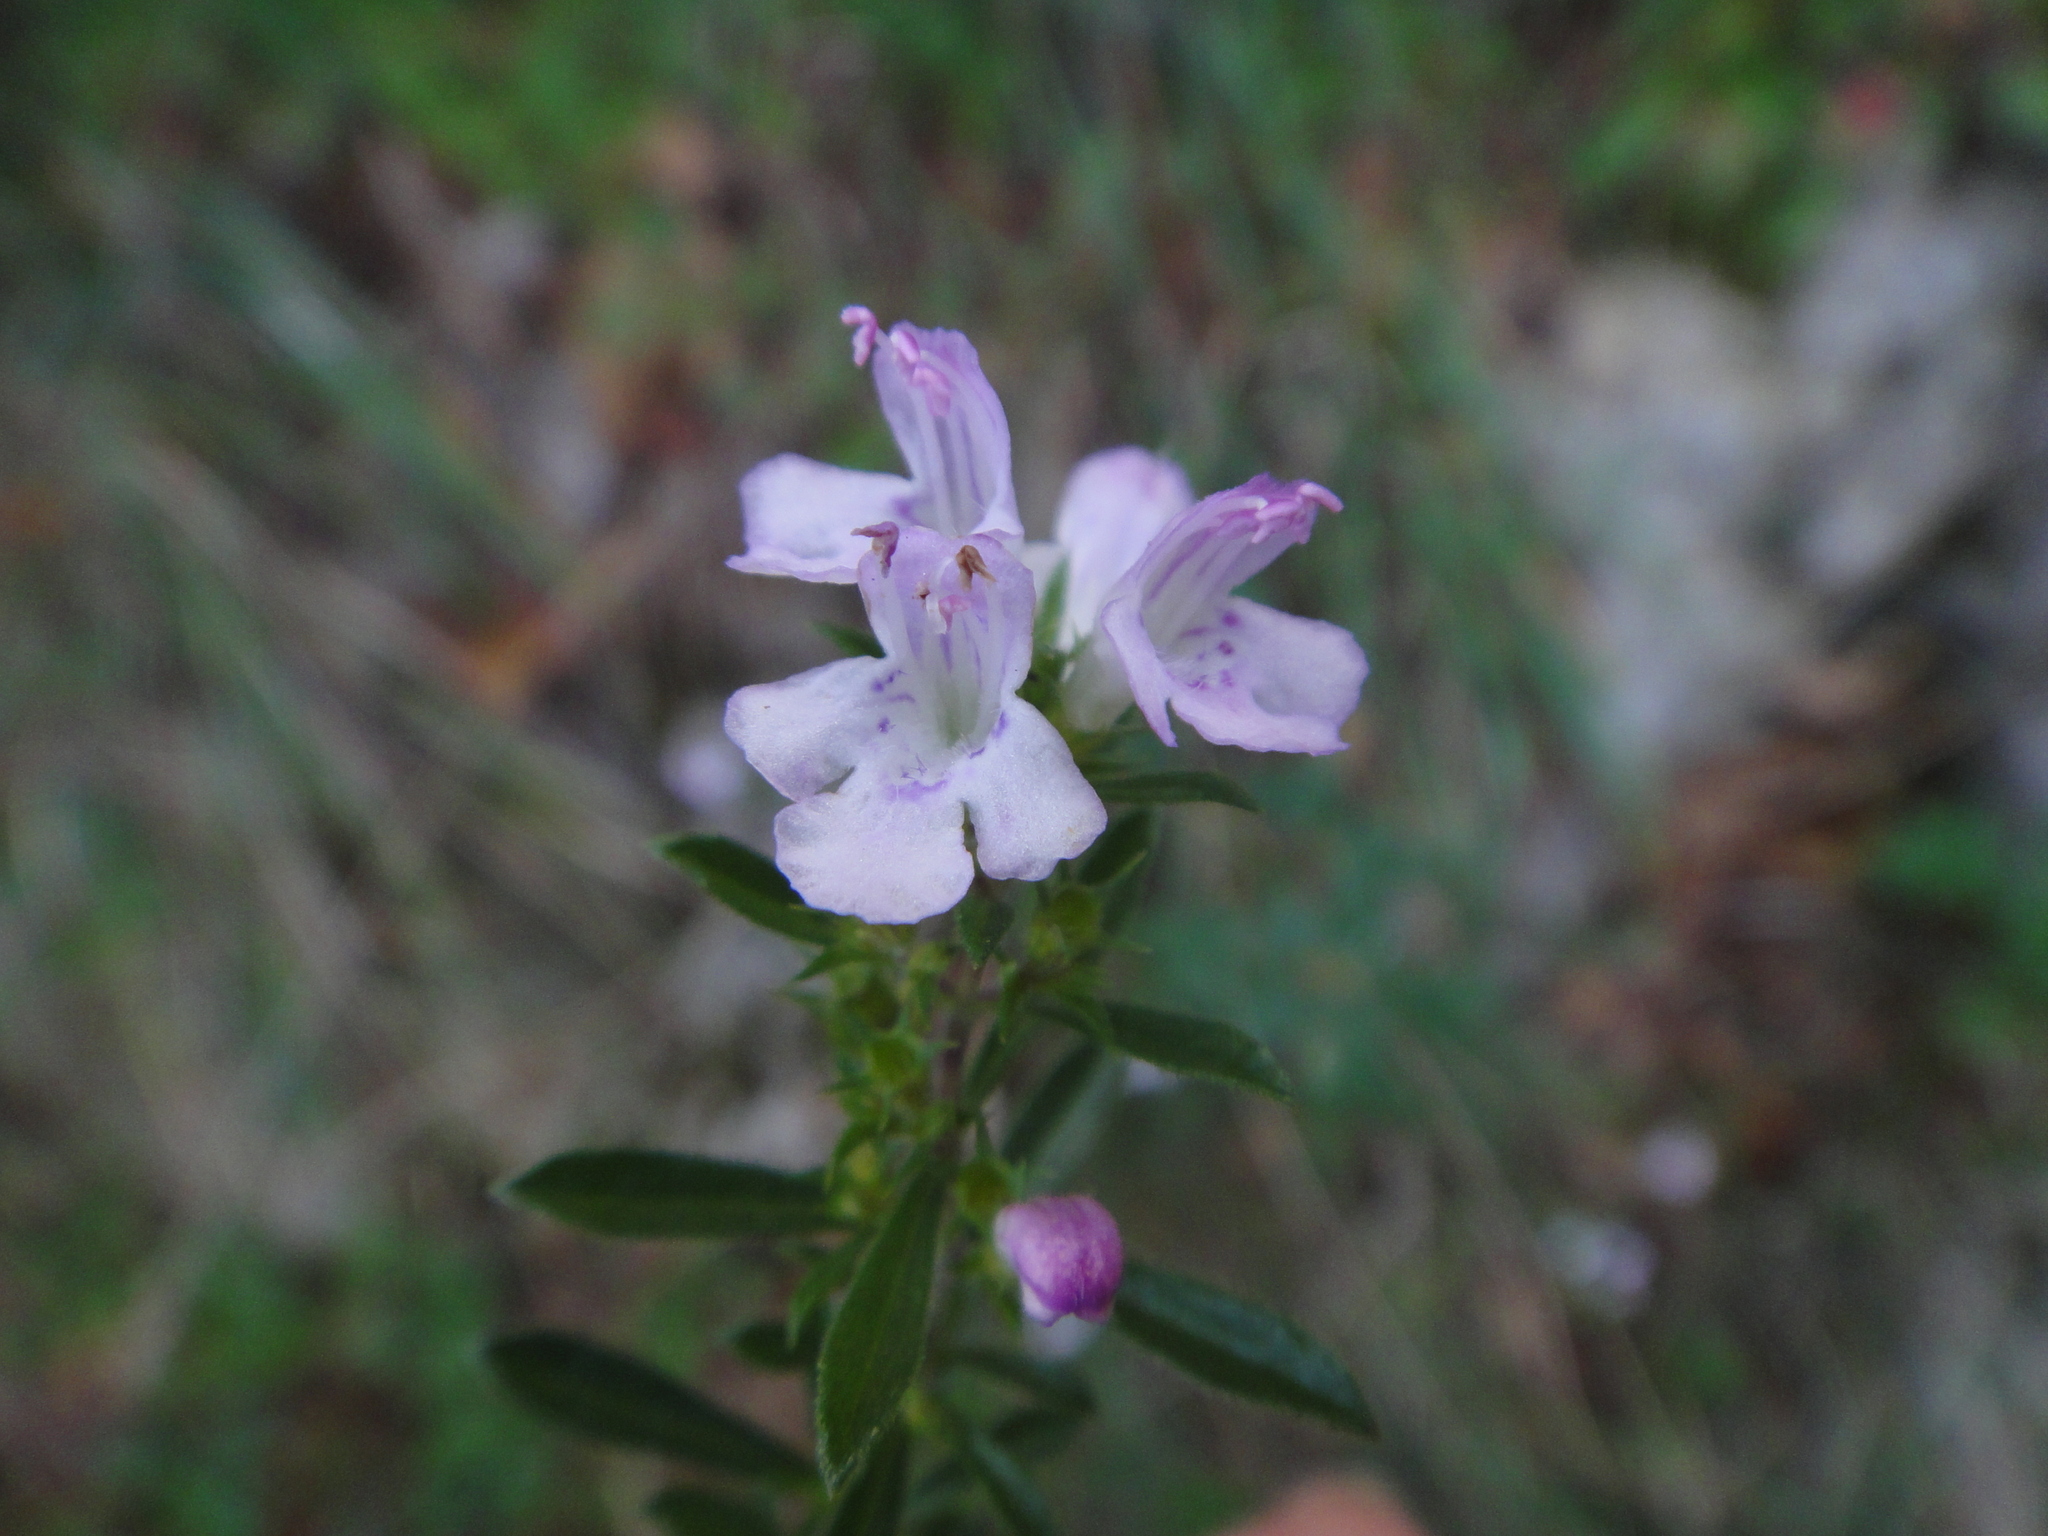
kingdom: Plantae
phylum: Tracheophyta
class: Magnoliopsida
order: Lamiales
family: Lamiaceae
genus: Satureja
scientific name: Satureja montana
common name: Winter savory
